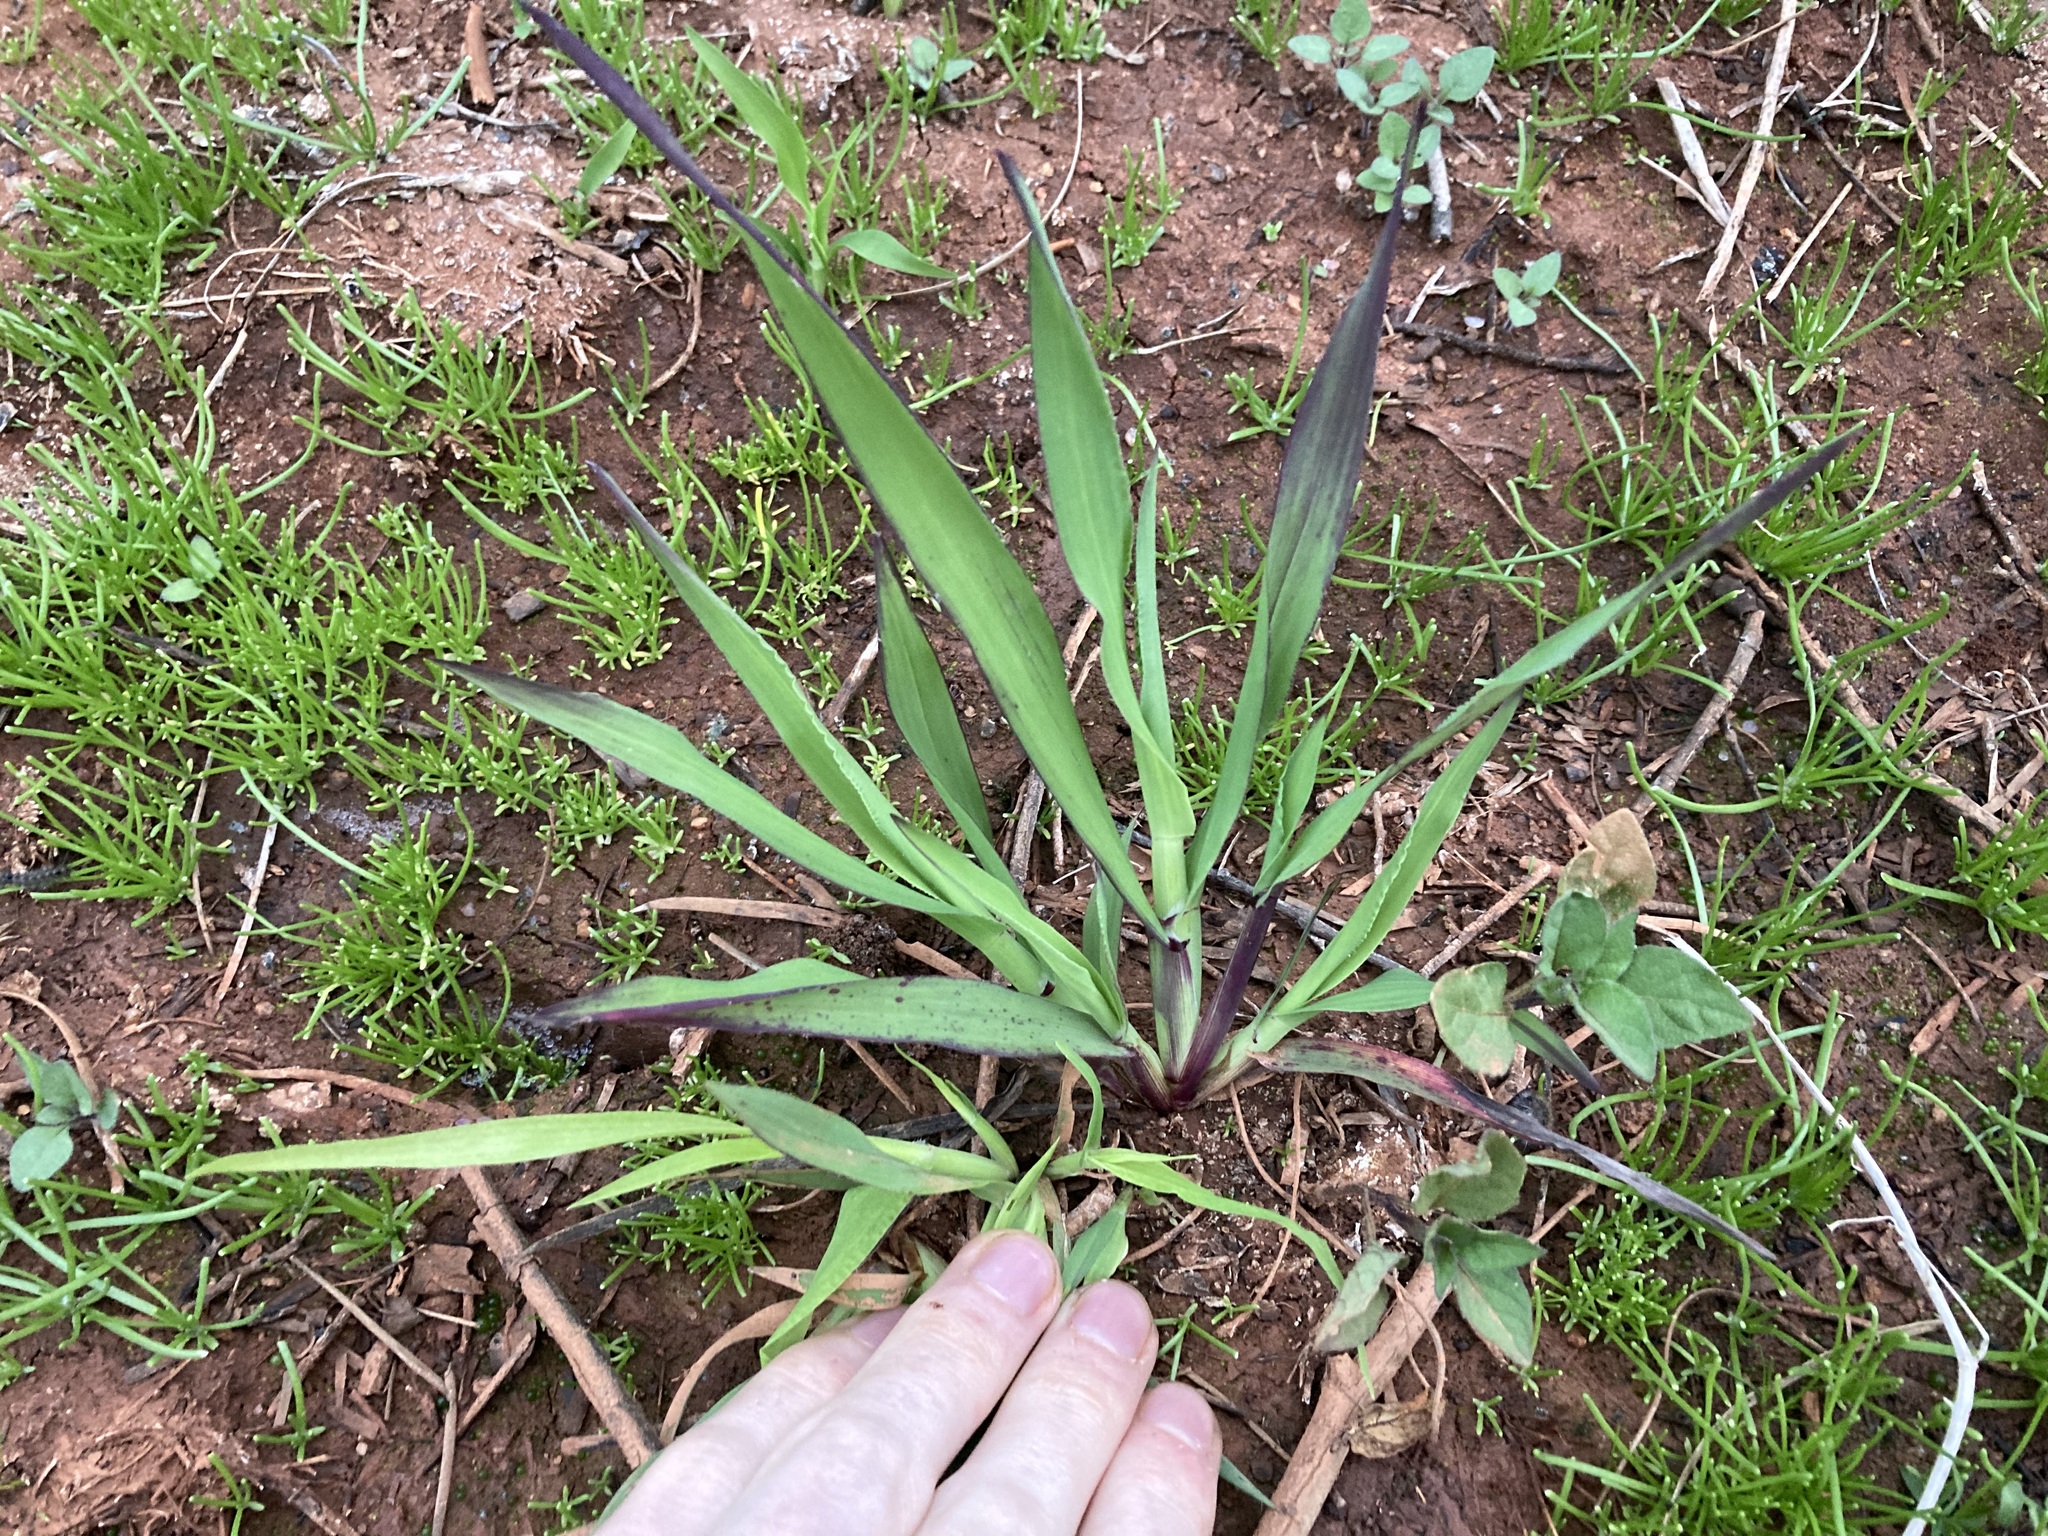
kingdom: Plantae
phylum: Tracheophyta
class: Liliopsida
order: Poales
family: Poaceae
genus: Ehrharta
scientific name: Ehrharta longiflora
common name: Longflowered veldtgrass
